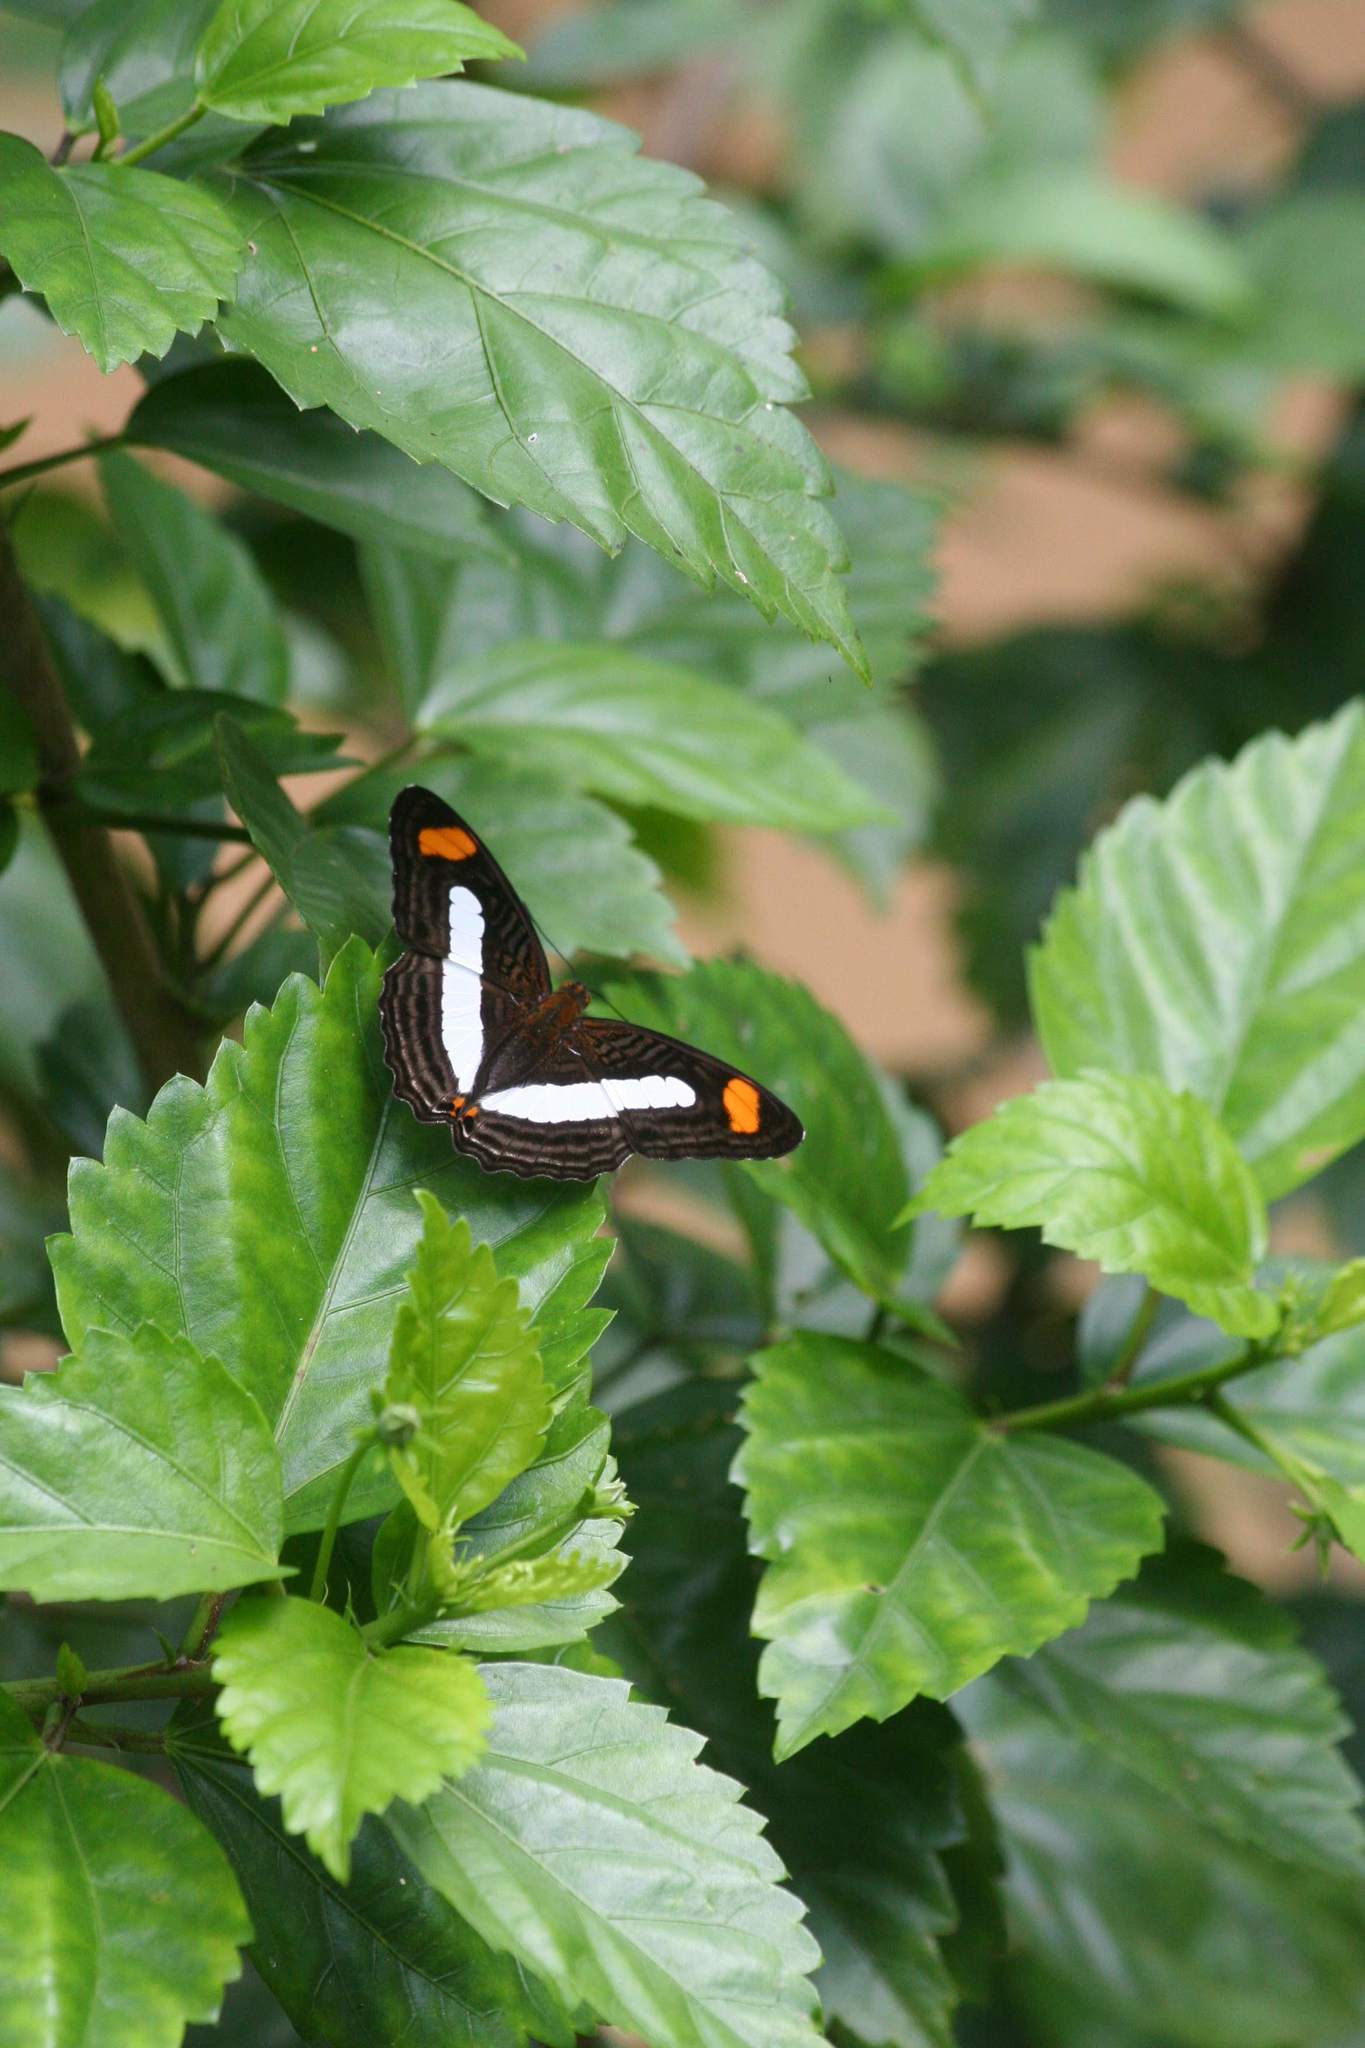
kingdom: Animalia
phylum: Arthropoda
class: Insecta
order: Lepidoptera
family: Nymphalidae
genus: Limenitis
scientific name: Limenitis Adelpha iphiclus
